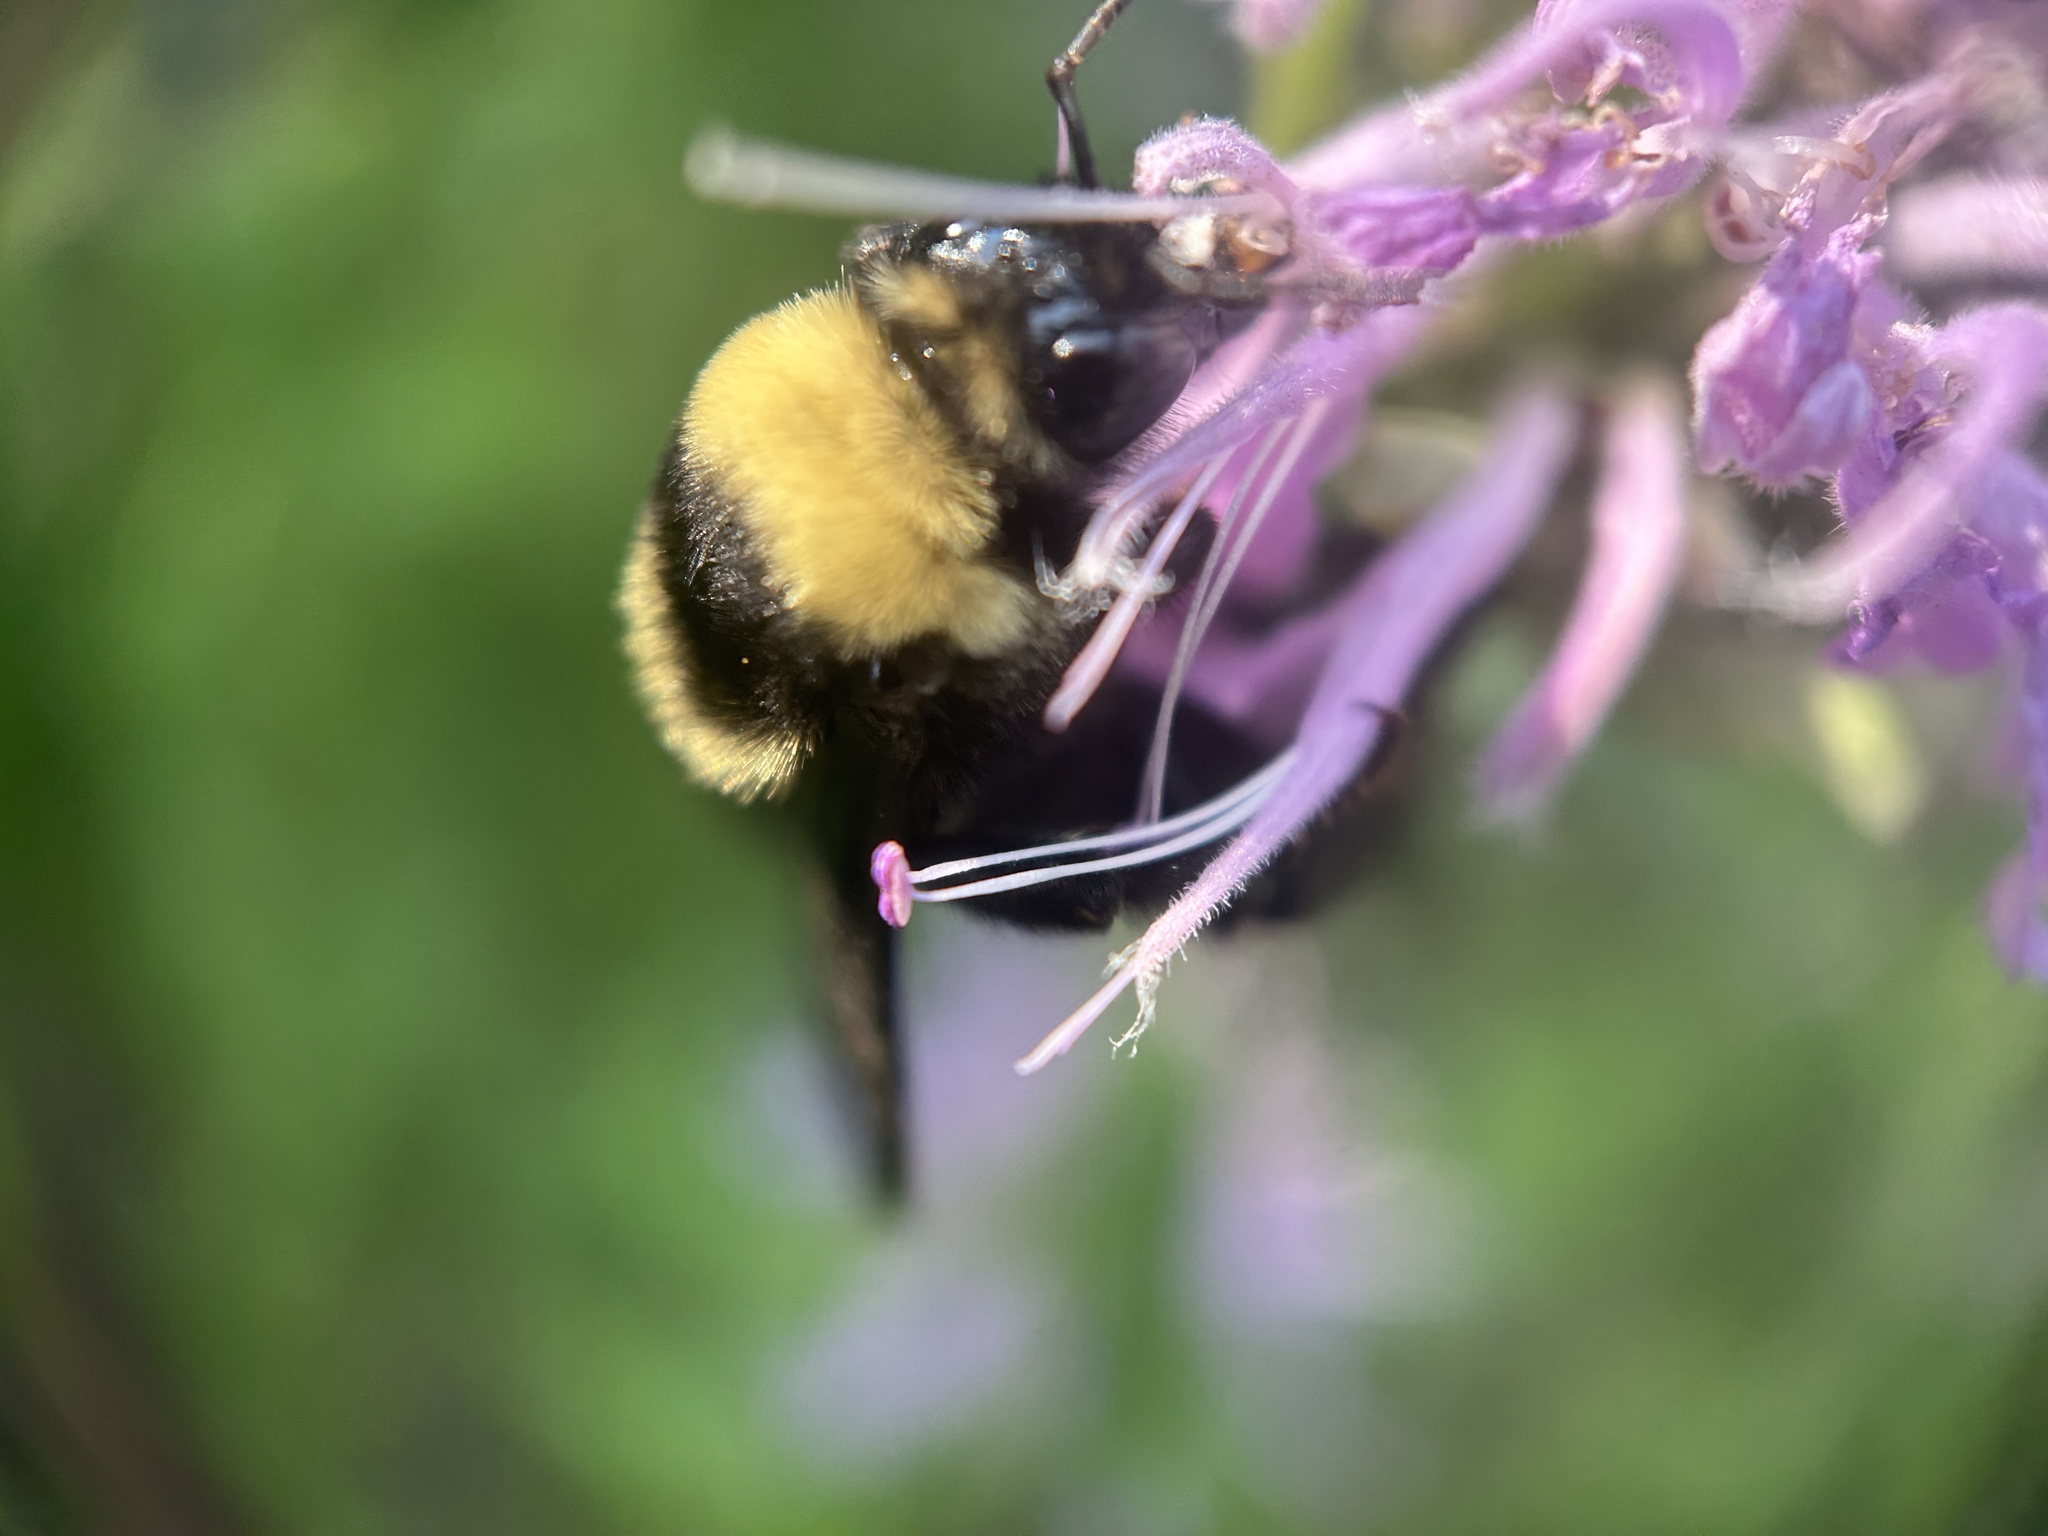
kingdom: Animalia
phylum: Arthropoda
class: Insecta
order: Hymenoptera
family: Apidae
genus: Bombus
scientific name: Bombus auricomus
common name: Black and gold bumble bee
